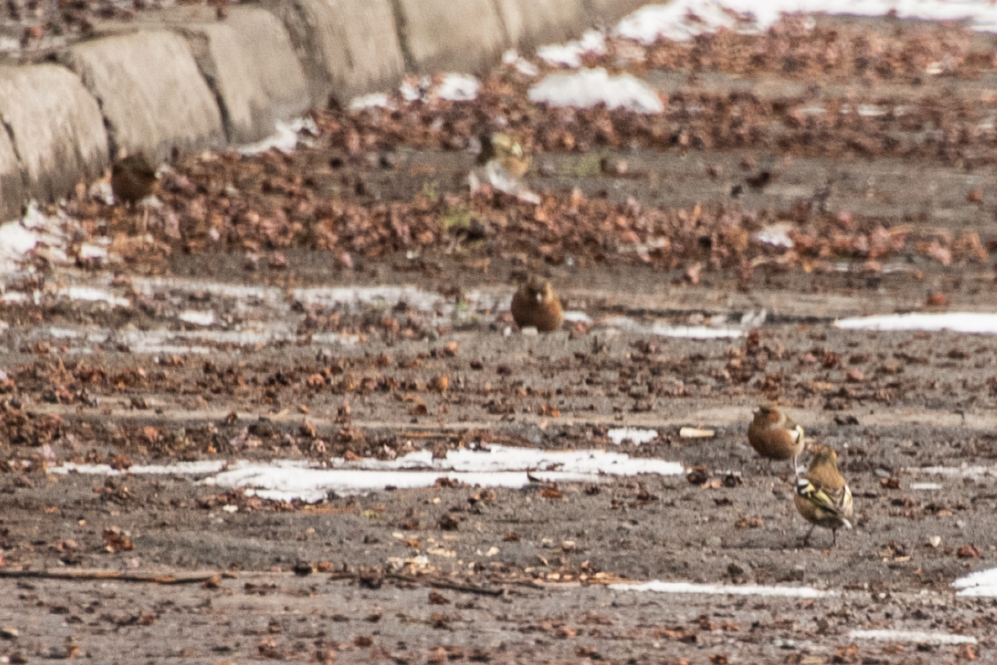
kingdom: Animalia
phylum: Chordata
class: Aves
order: Passeriformes
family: Fringillidae
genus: Fringilla
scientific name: Fringilla coelebs
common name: Common chaffinch
